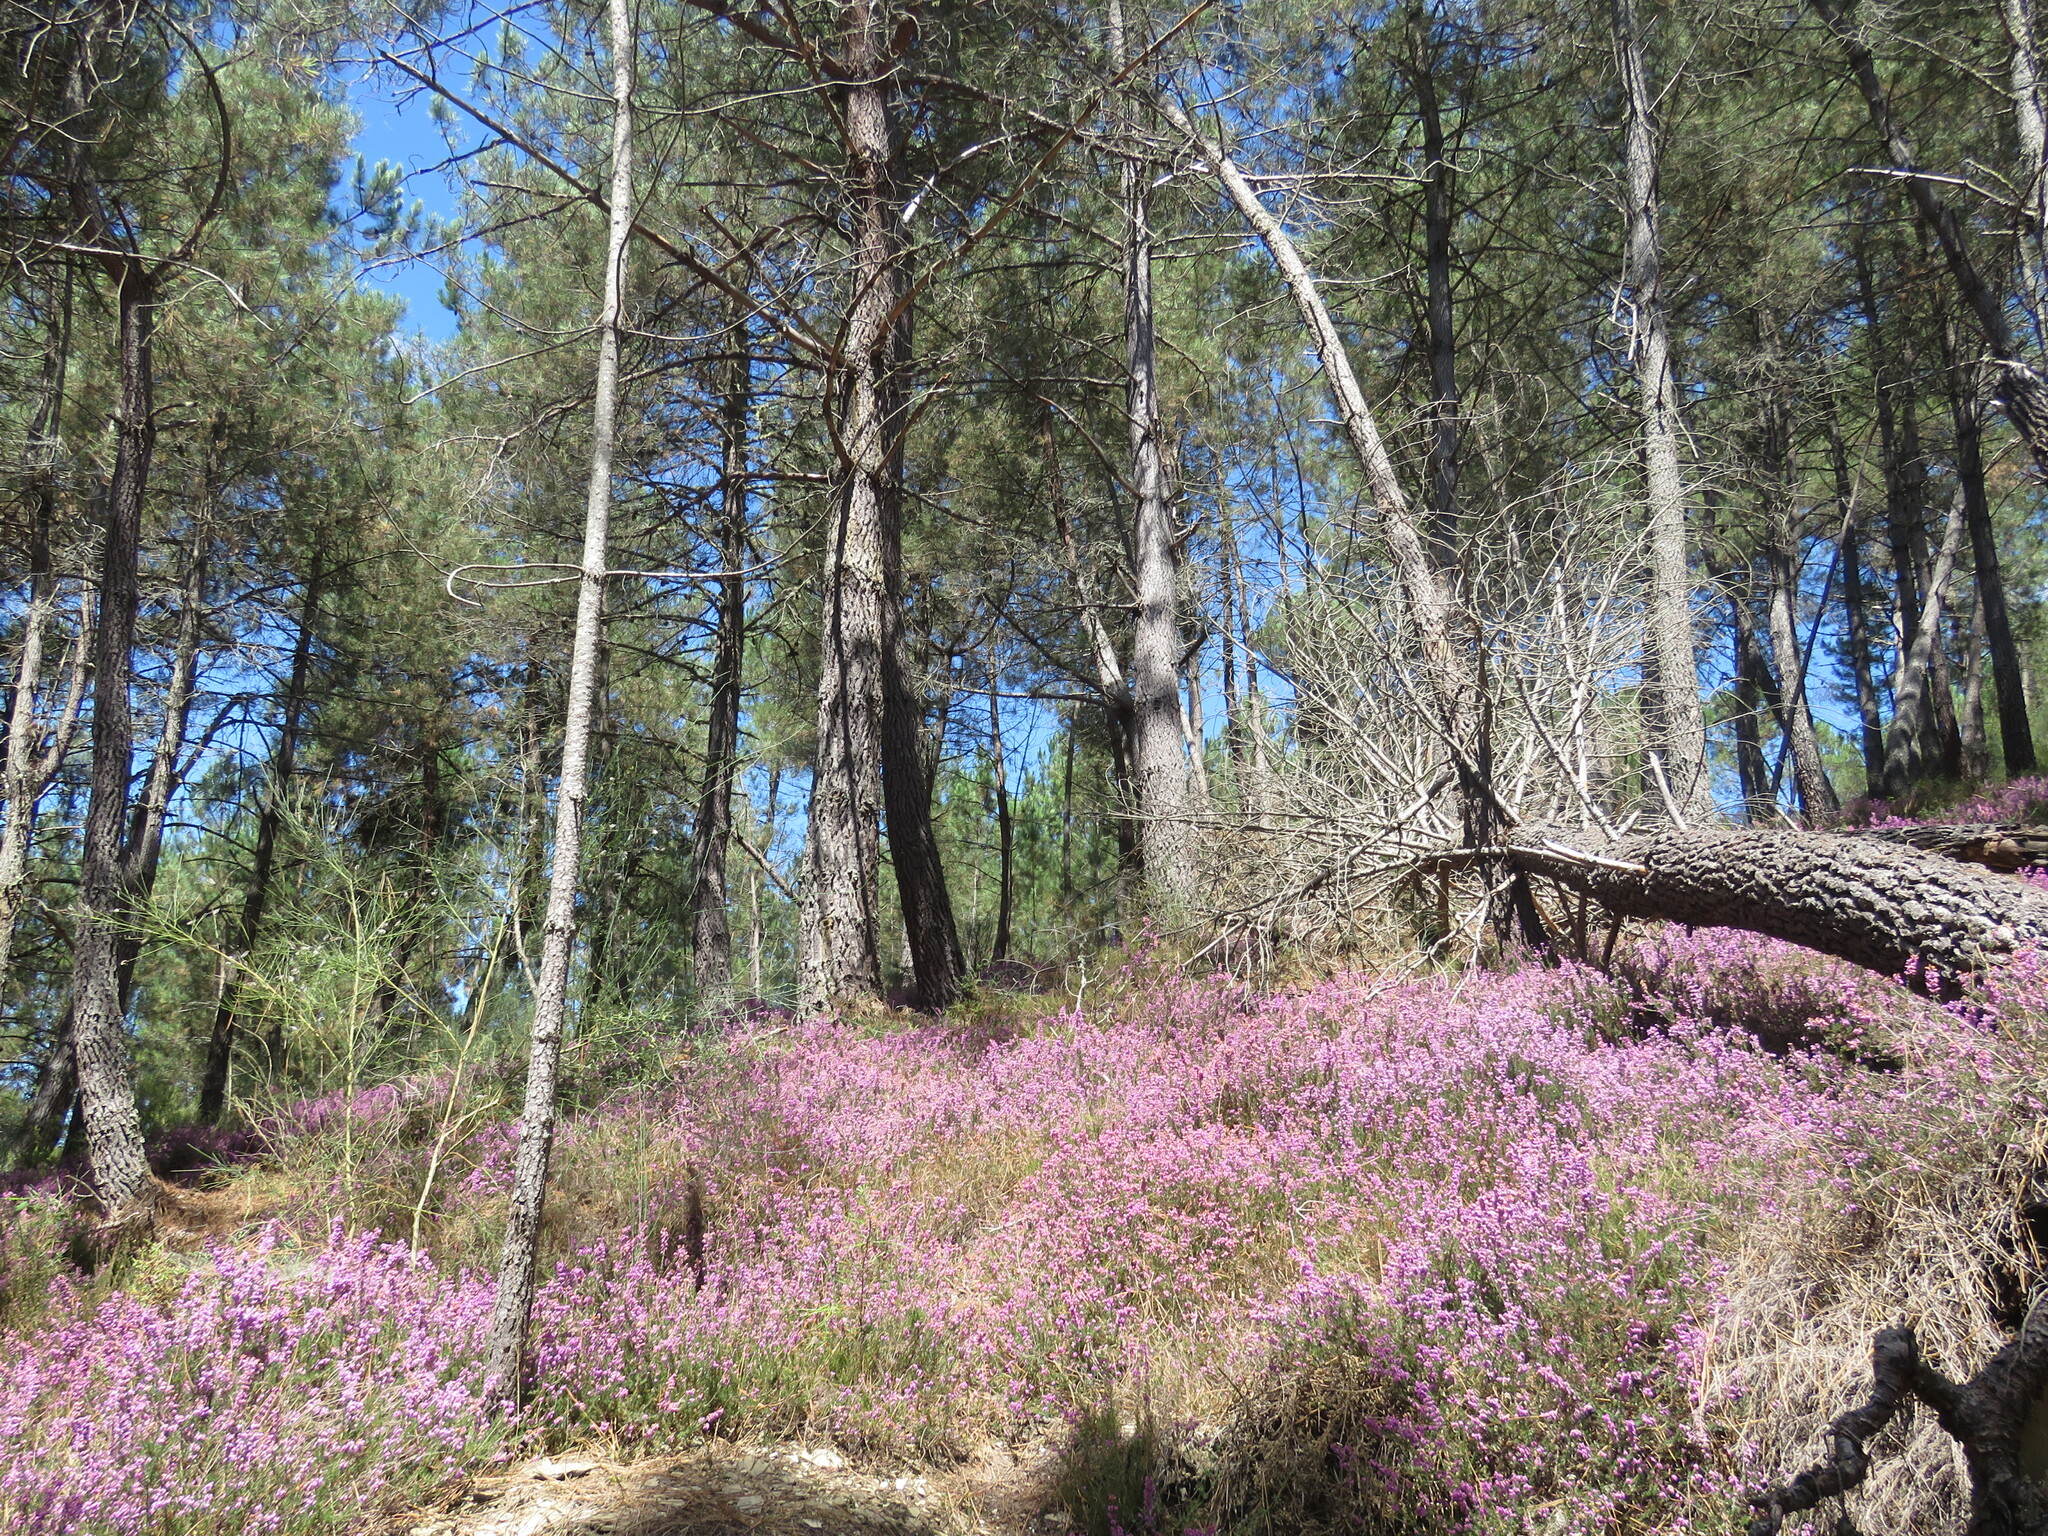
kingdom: Plantae
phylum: Tracheophyta
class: Magnoliopsida
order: Ericales
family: Ericaceae
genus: Erica
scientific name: Erica cinerea
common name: Bell heather
